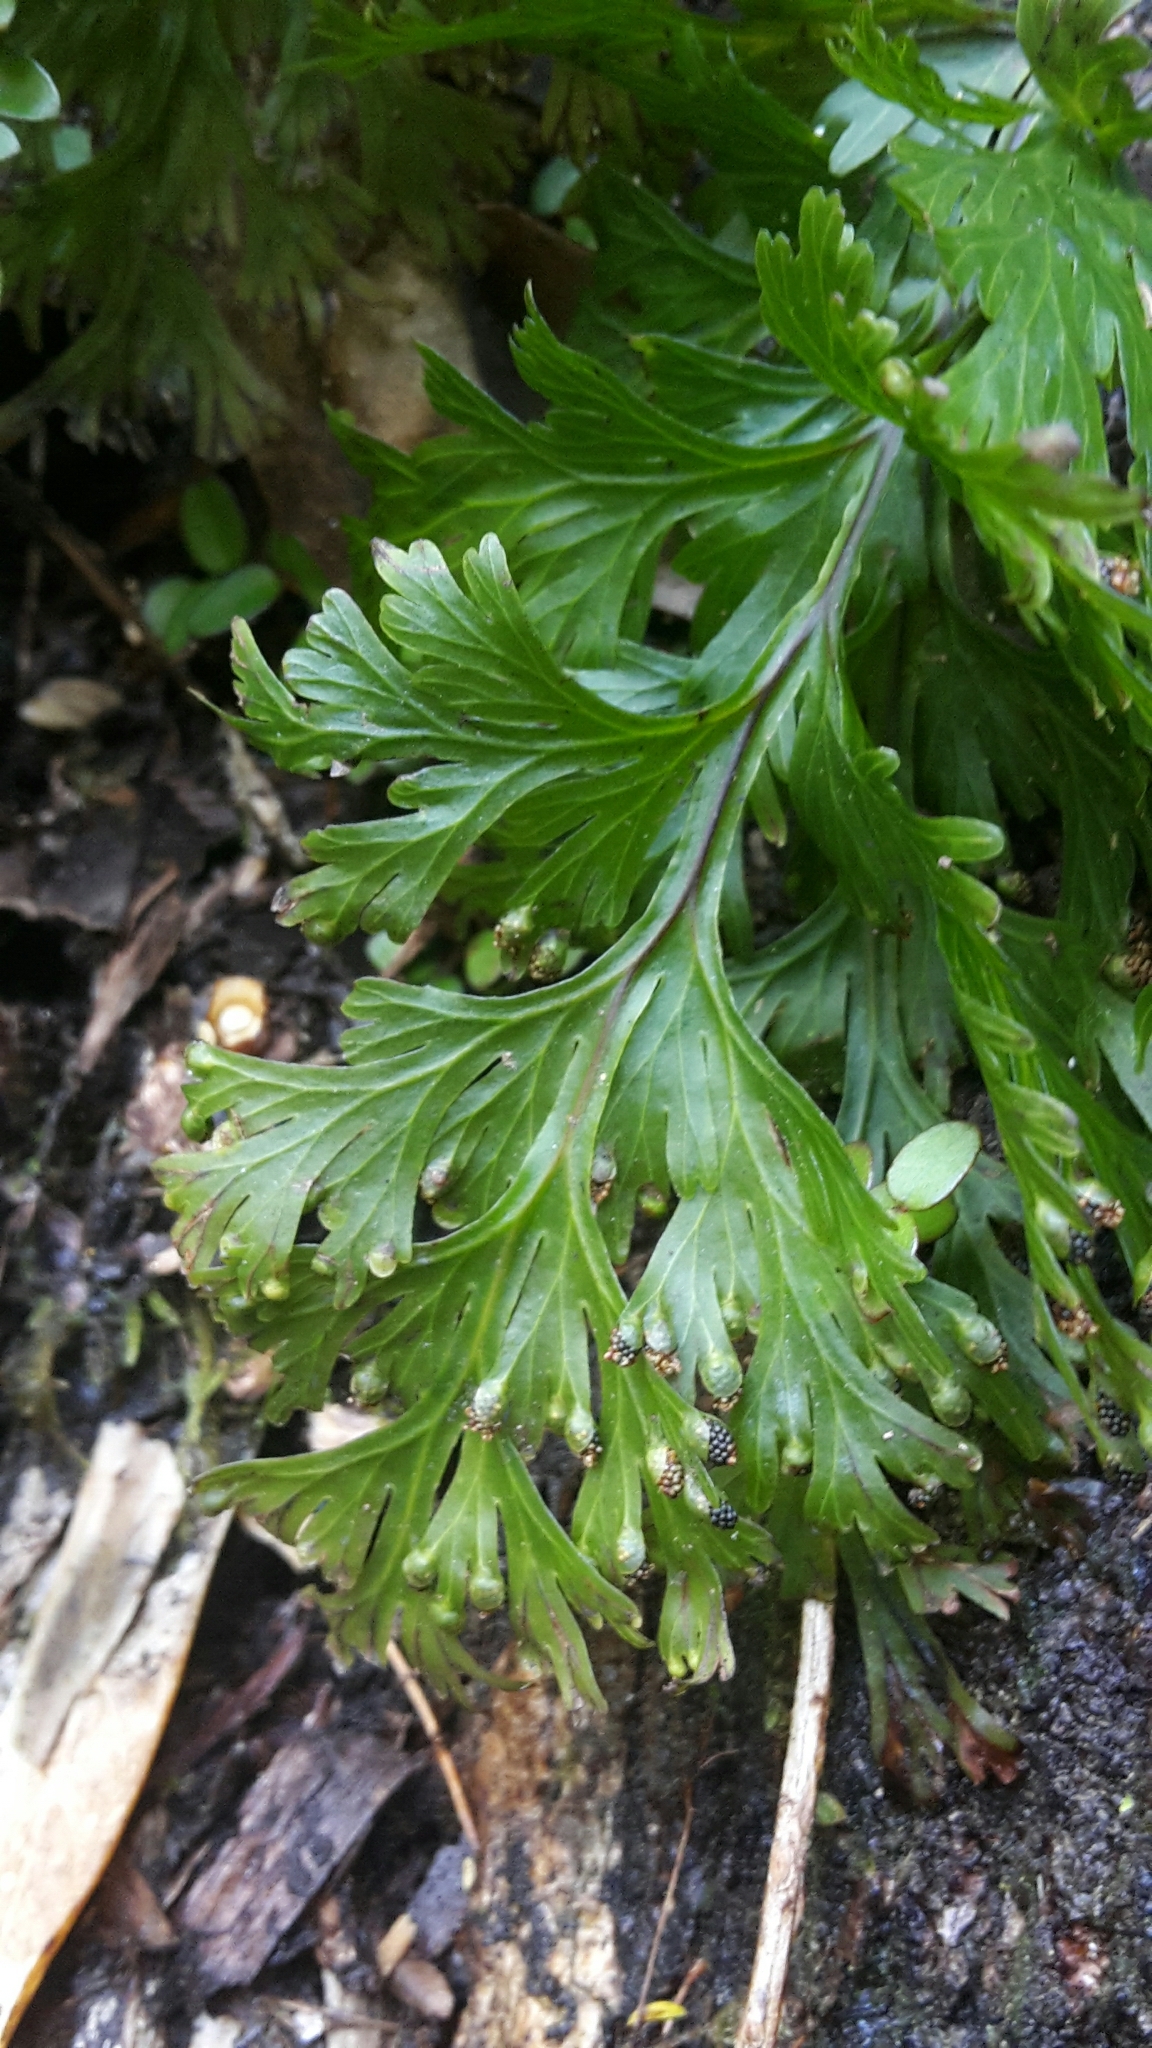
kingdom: Plantae
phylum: Tracheophyta
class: Polypodiopsida
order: Hymenophyllales
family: Hymenophyllaceae
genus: Hymenophyllum
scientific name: Hymenophyllum dilatatum
